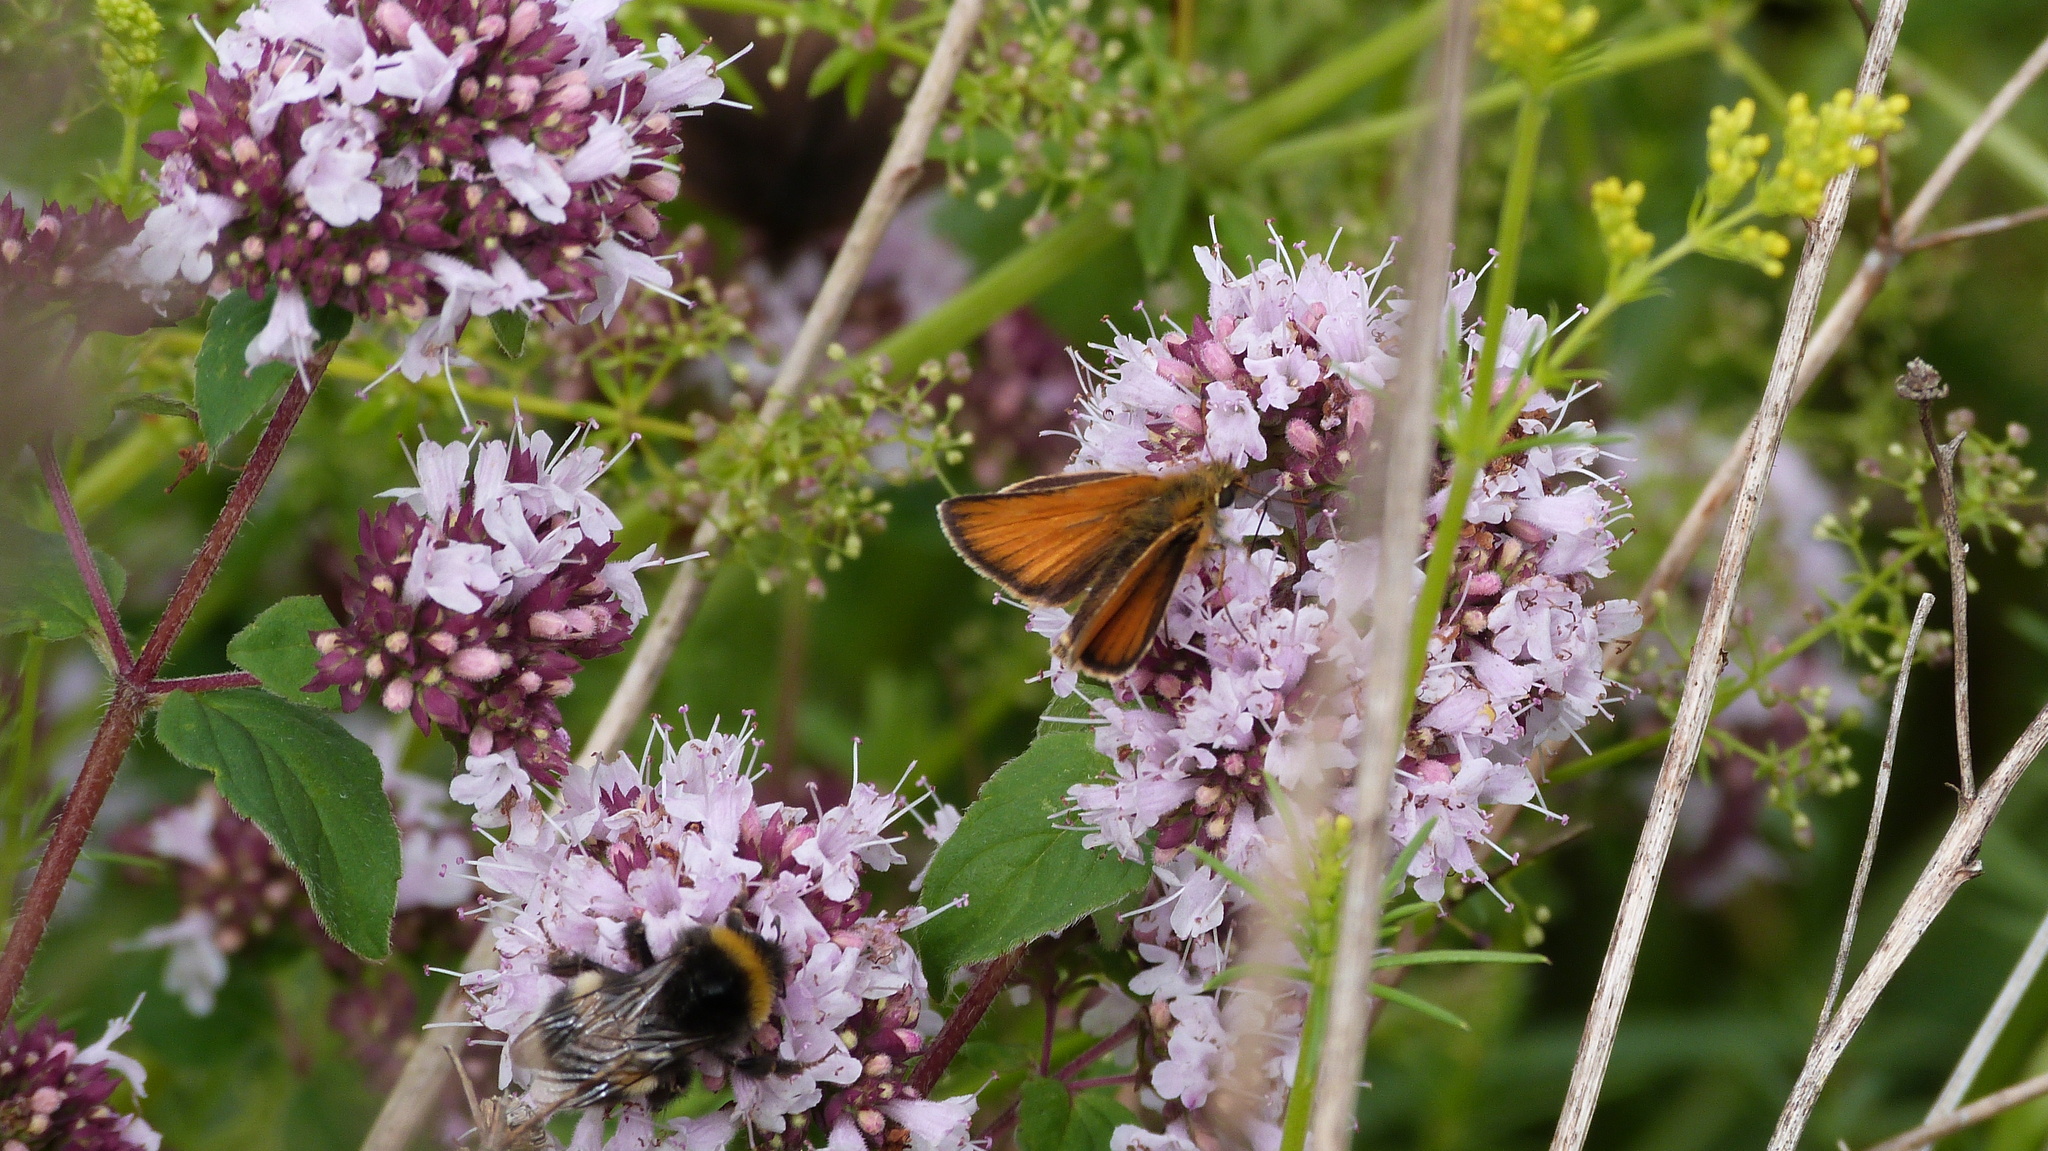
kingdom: Animalia
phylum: Arthropoda
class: Insecta
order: Lepidoptera
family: Hesperiidae
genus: Thymelicus
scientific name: Thymelicus lineola
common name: Essex skipper
